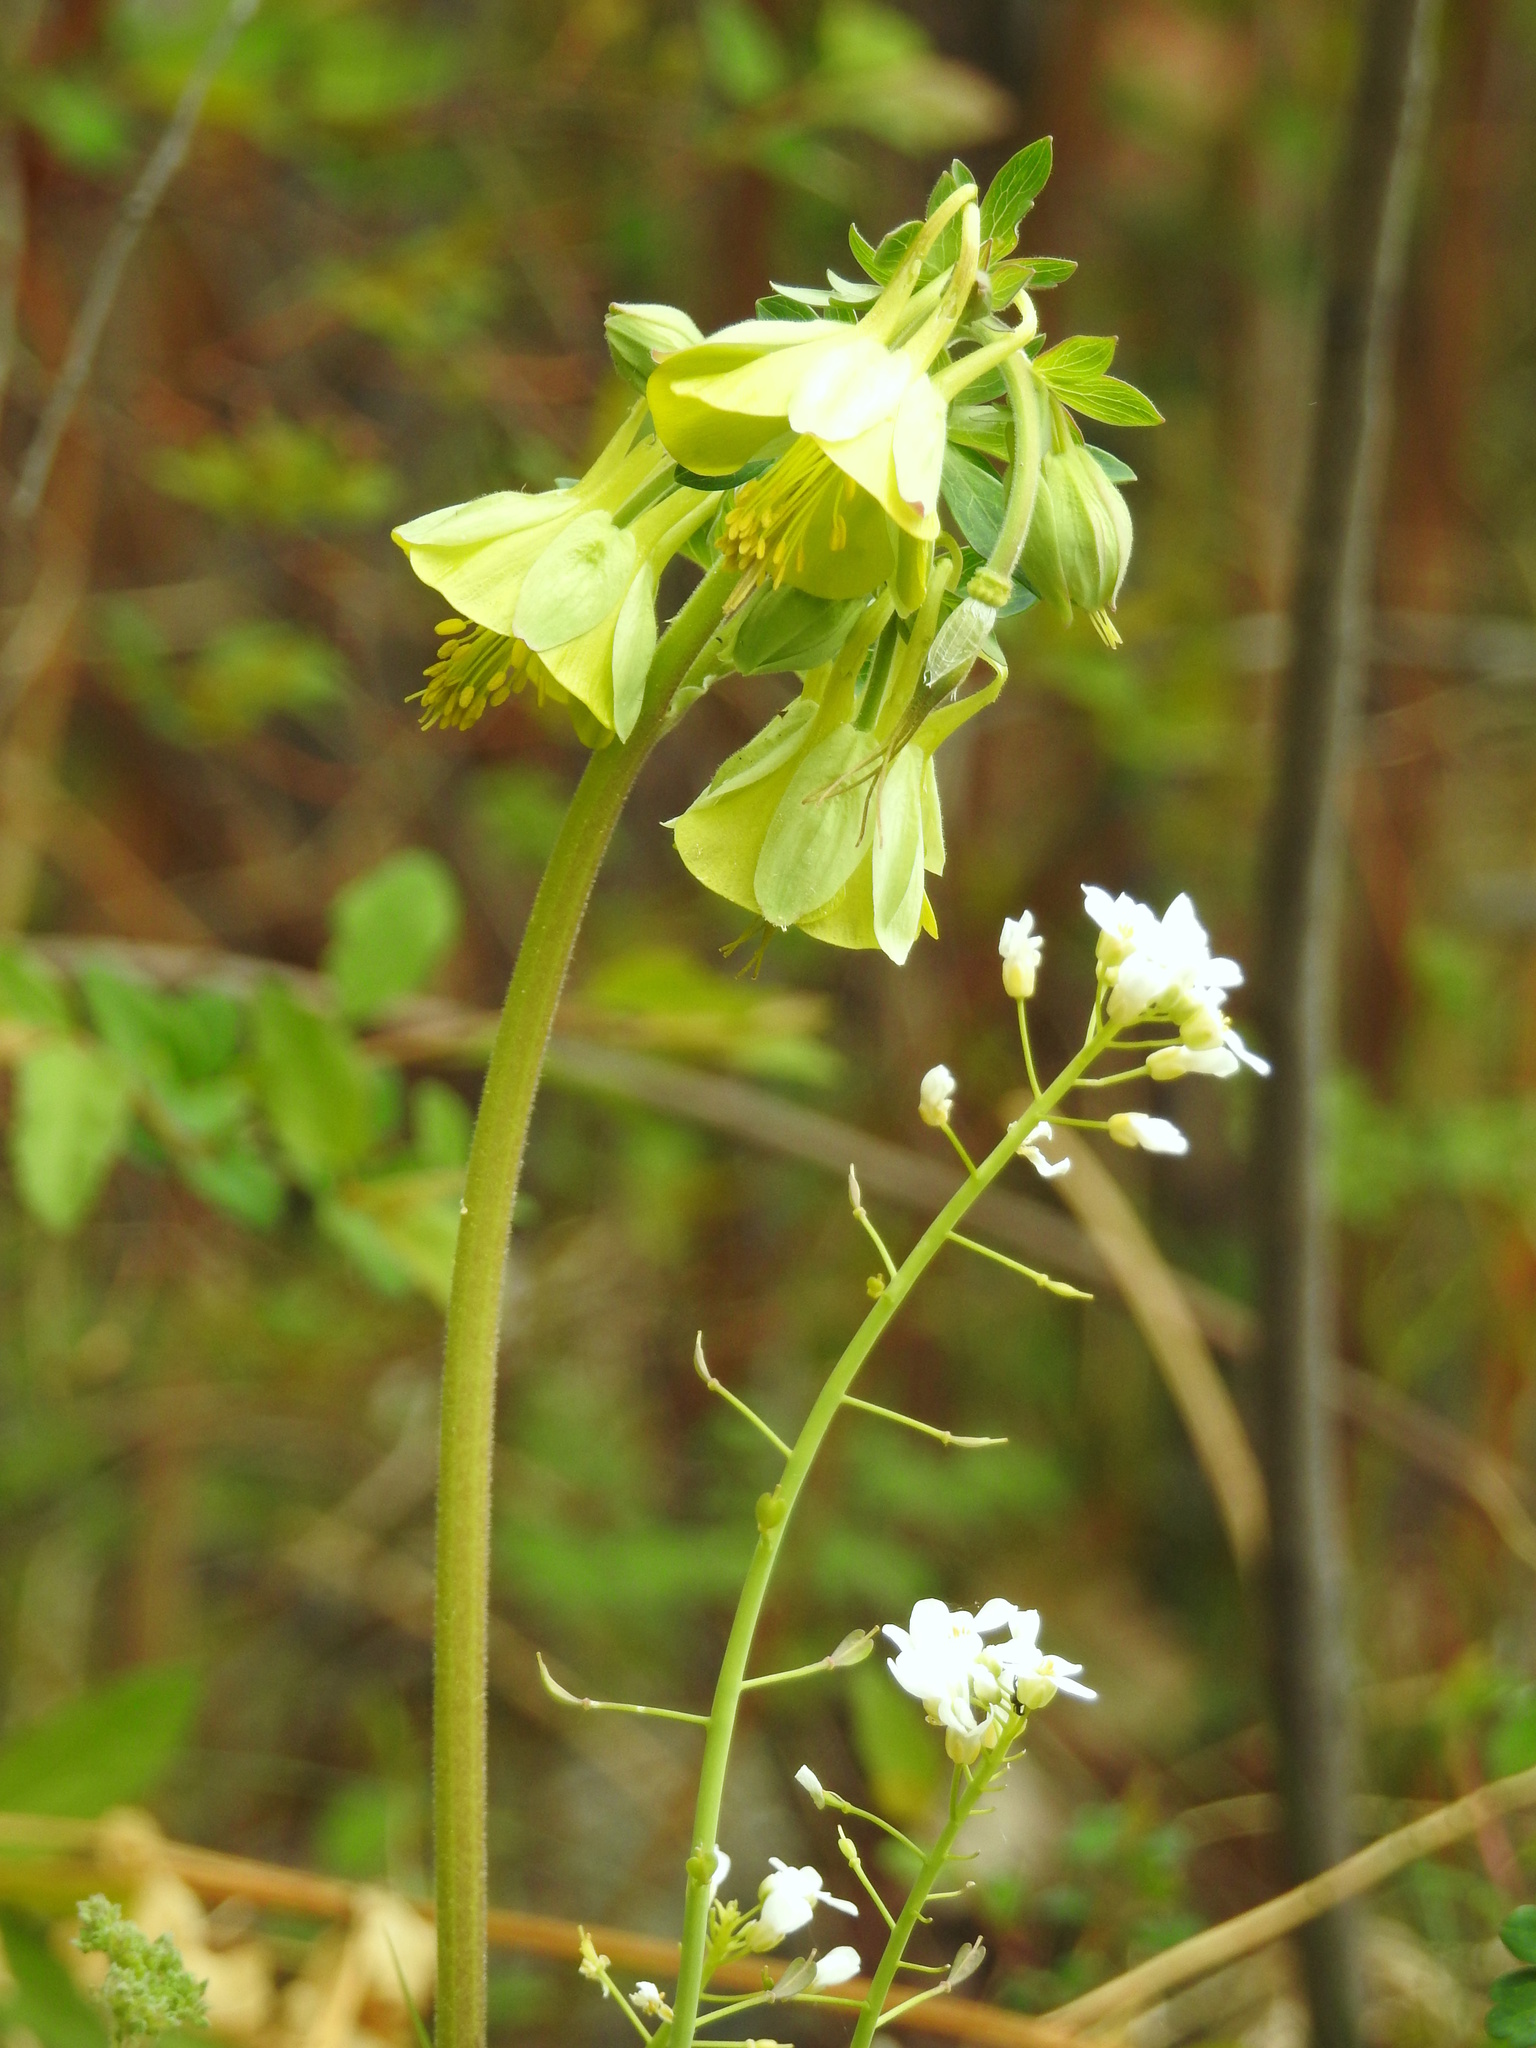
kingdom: Plantae
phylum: Tracheophyta
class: Magnoliopsida
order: Ranunculales
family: Ranunculaceae
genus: Aquilegia
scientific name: Aquilegia viridiflora
